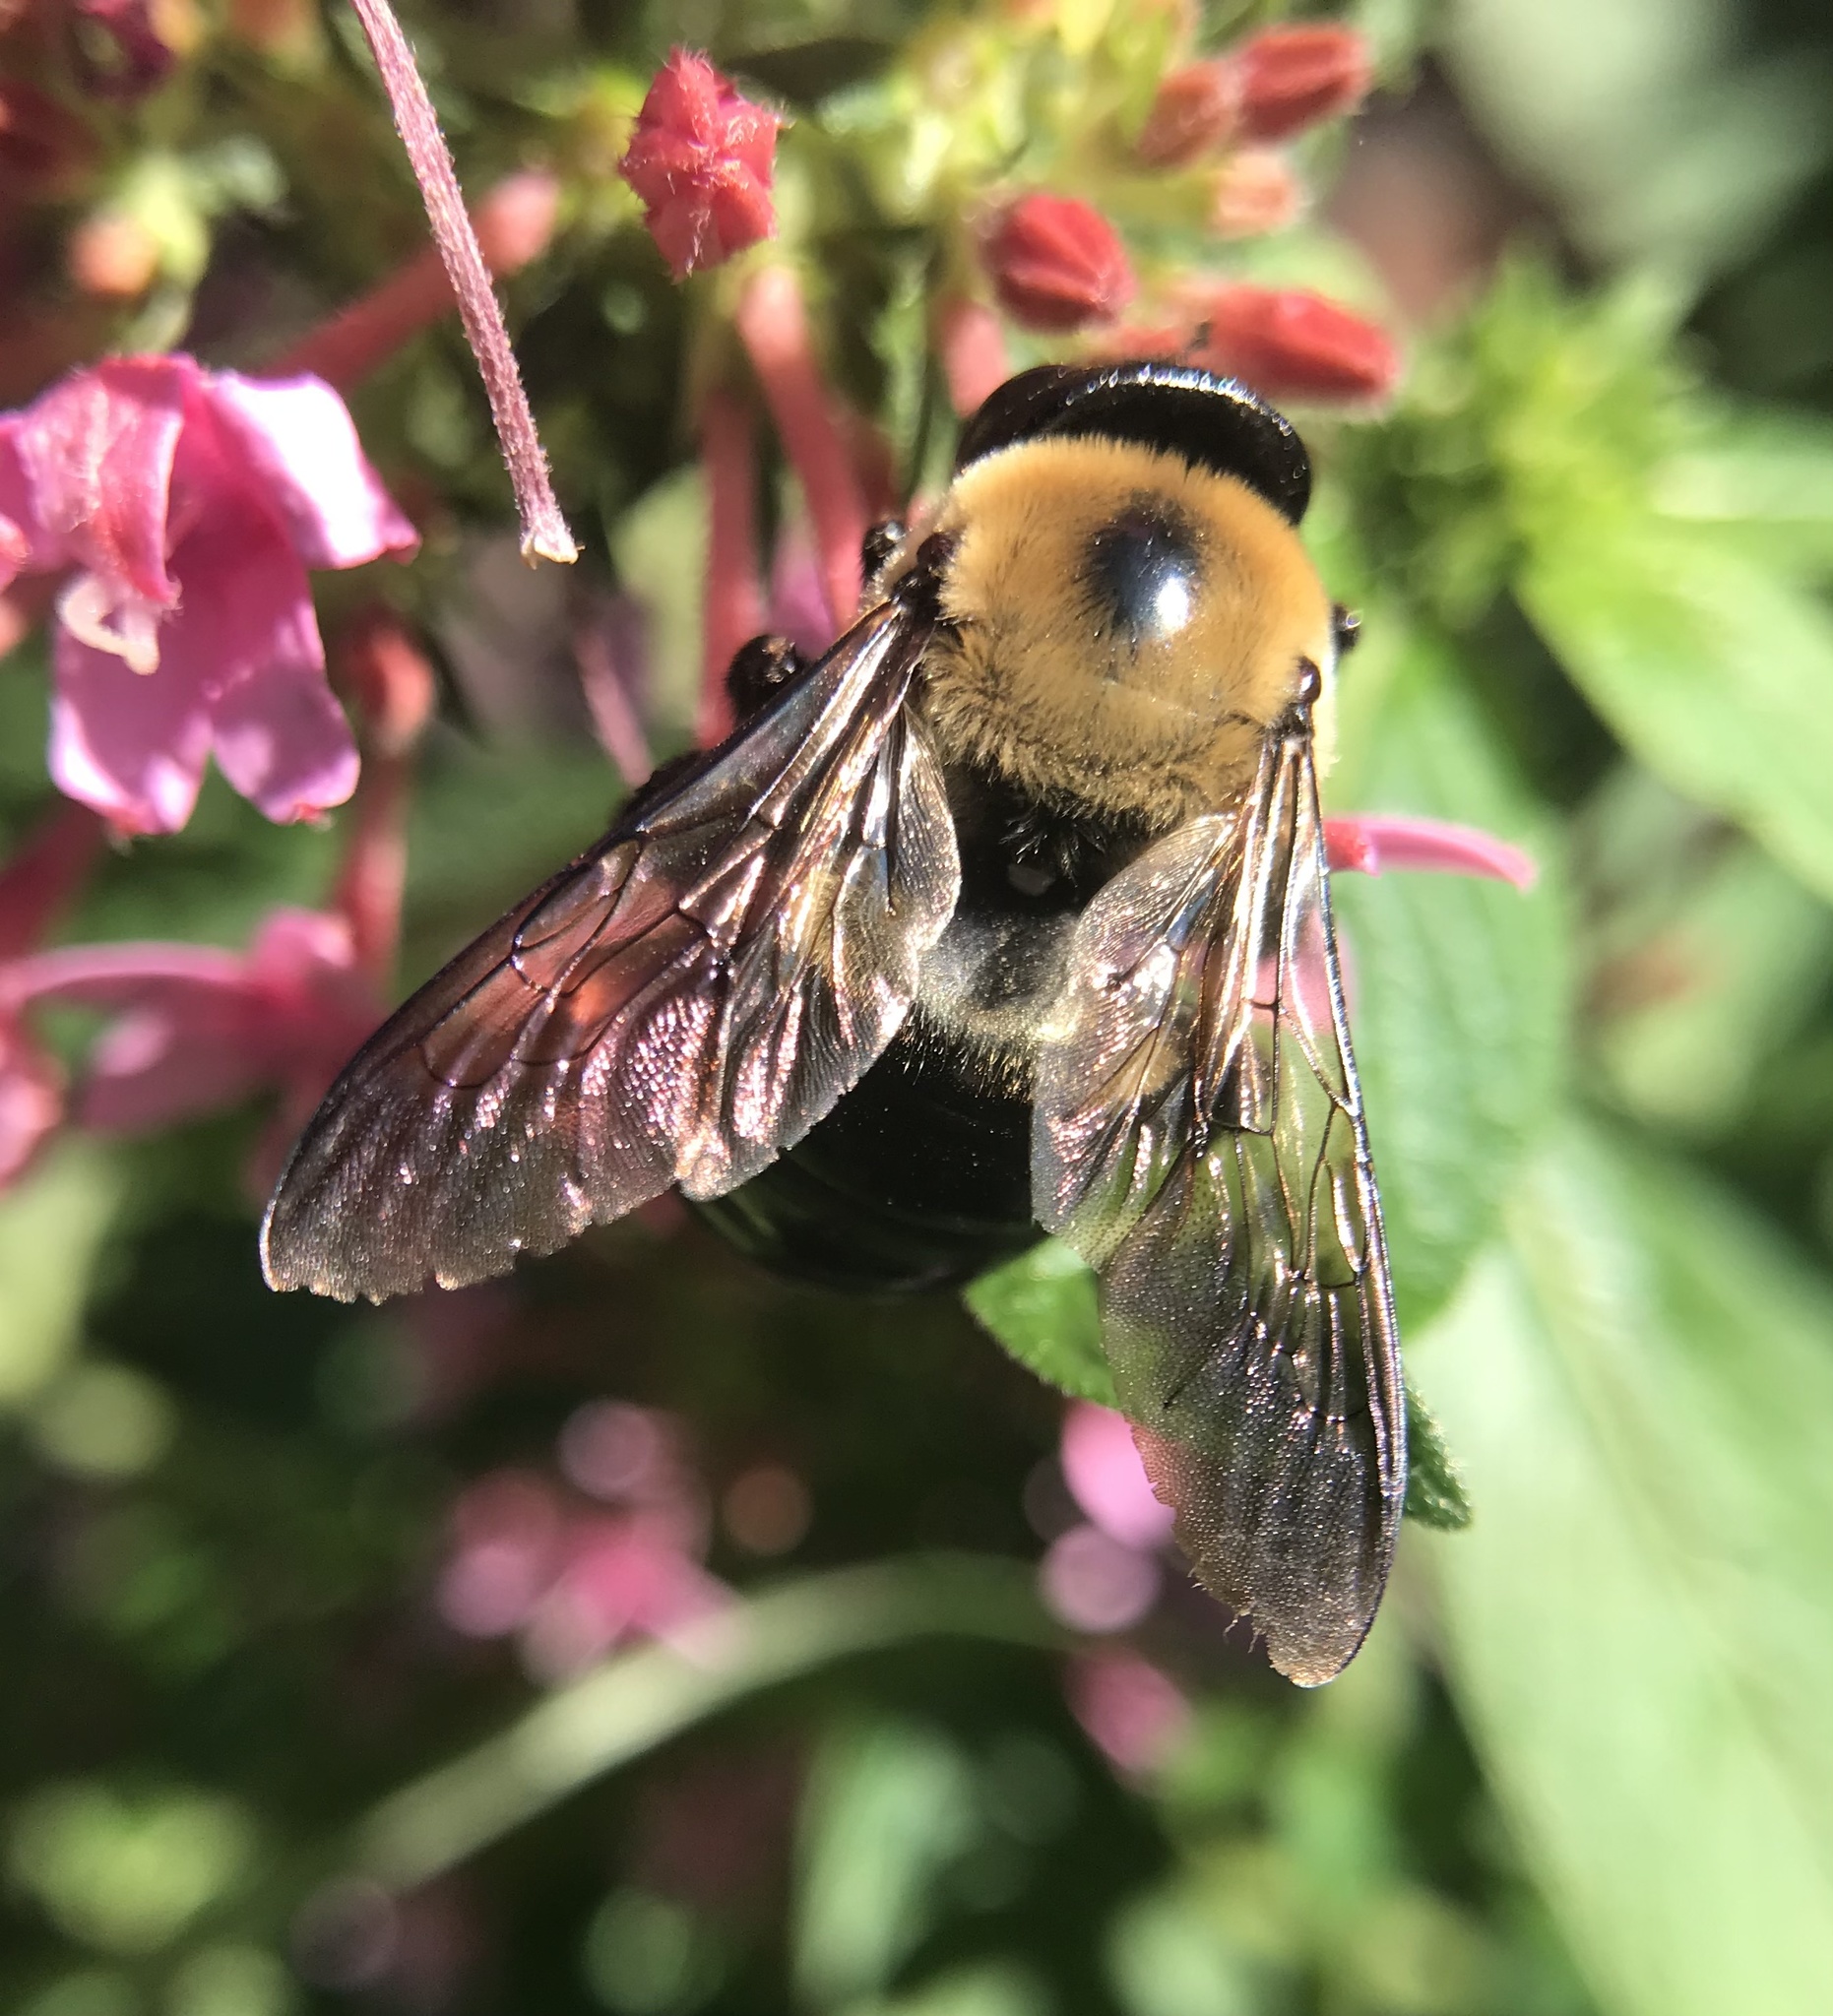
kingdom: Animalia
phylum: Arthropoda
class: Insecta
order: Hymenoptera
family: Apidae
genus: Xylocopa
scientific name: Xylocopa virginica
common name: Carpenter bee
